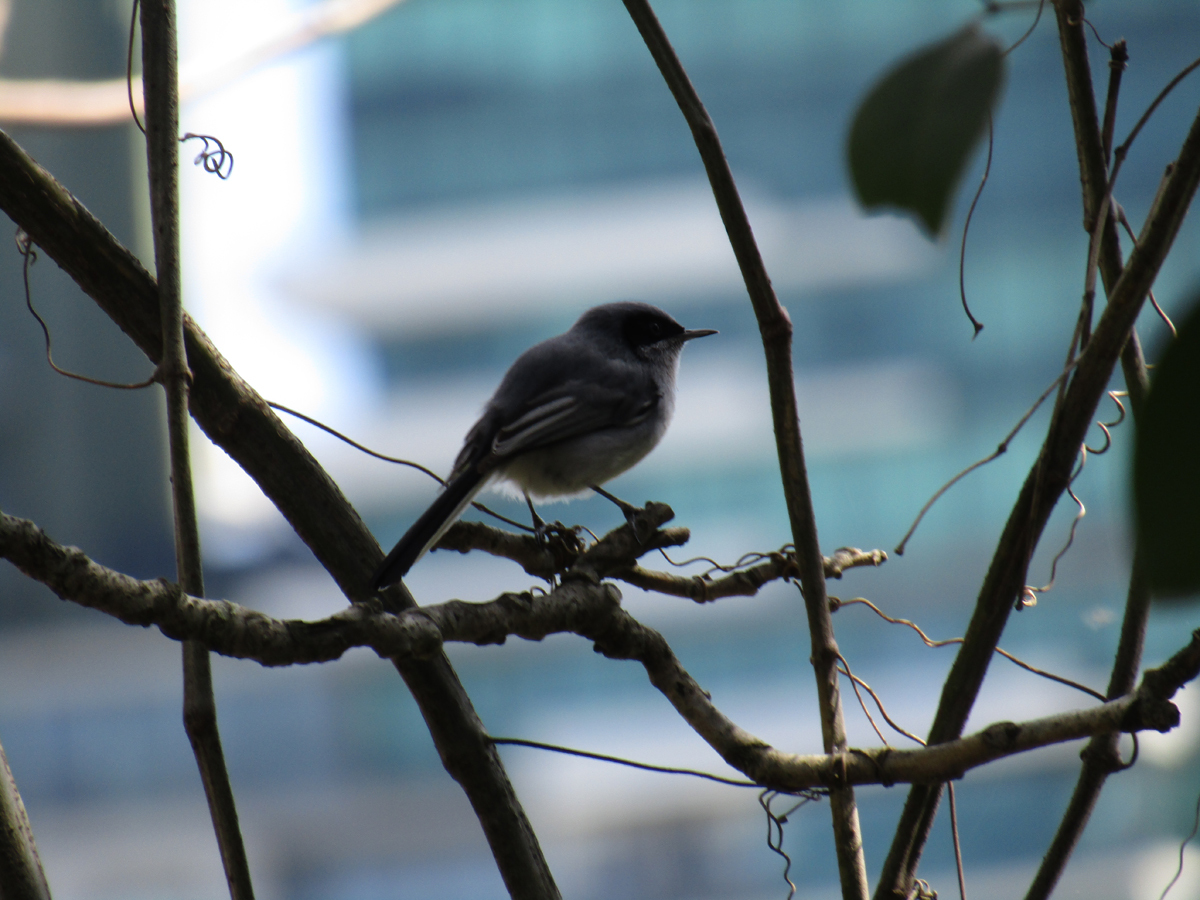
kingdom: Animalia
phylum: Chordata
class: Aves
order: Passeriformes
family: Polioptilidae
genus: Polioptila
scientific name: Polioptila dumicola
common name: Masked gnatcatcher
